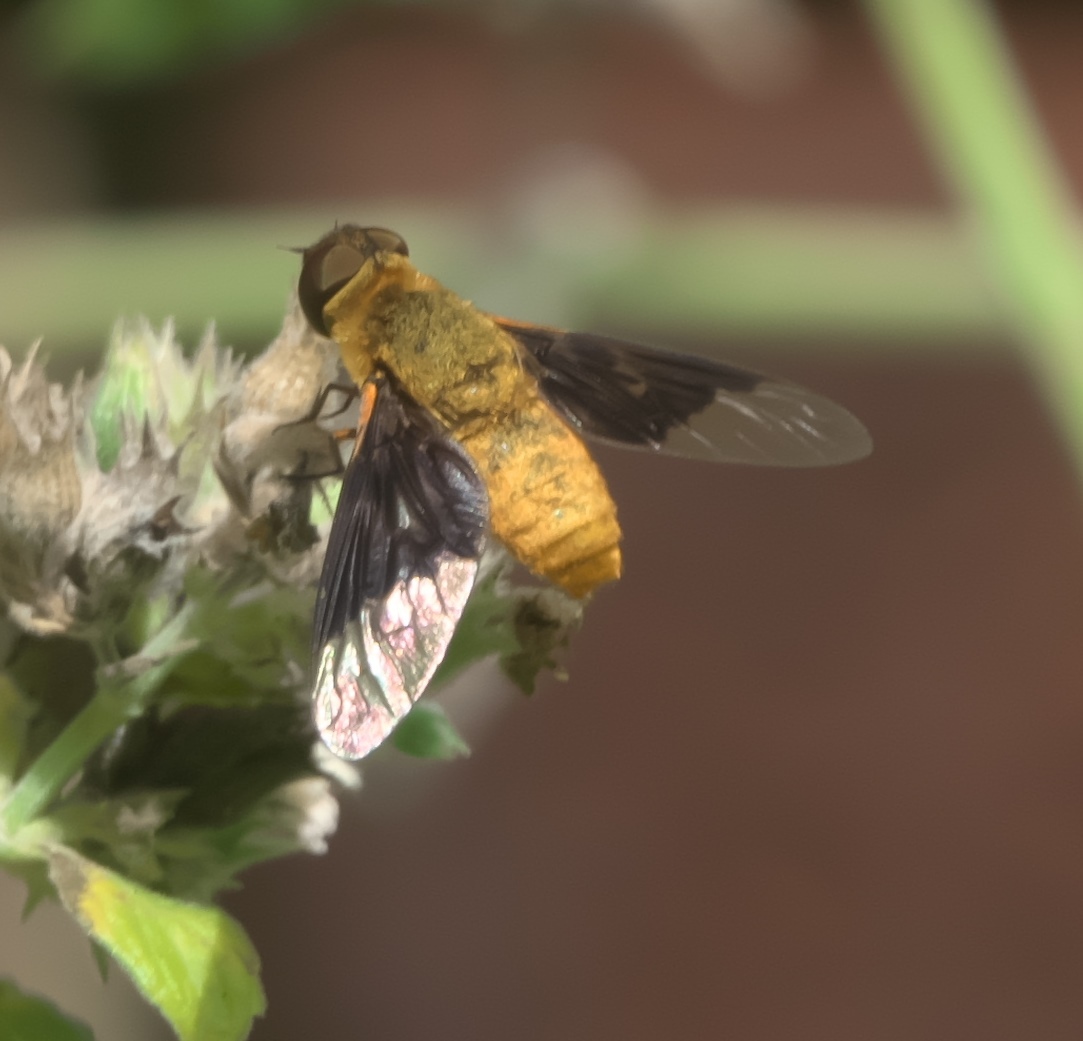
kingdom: Animalia
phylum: Arthropoda
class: Insecta
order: Diptera
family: Bombyliidae
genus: Chrysanthrax
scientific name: Chrysanthrax cypris
